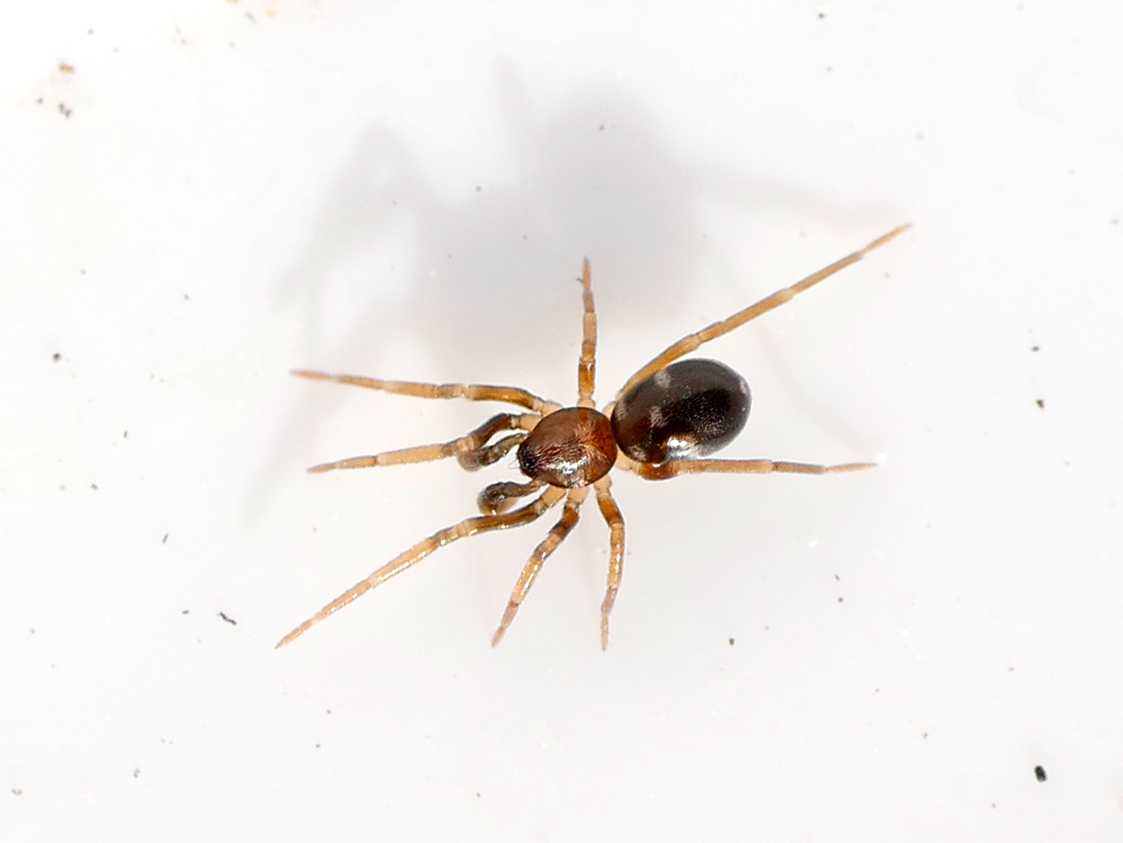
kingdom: Animalia
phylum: Arthropoda
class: Arachnida
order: Araneae
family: Phrurolithidae
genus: Phrurolithus
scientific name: Phrurolithus festivus
